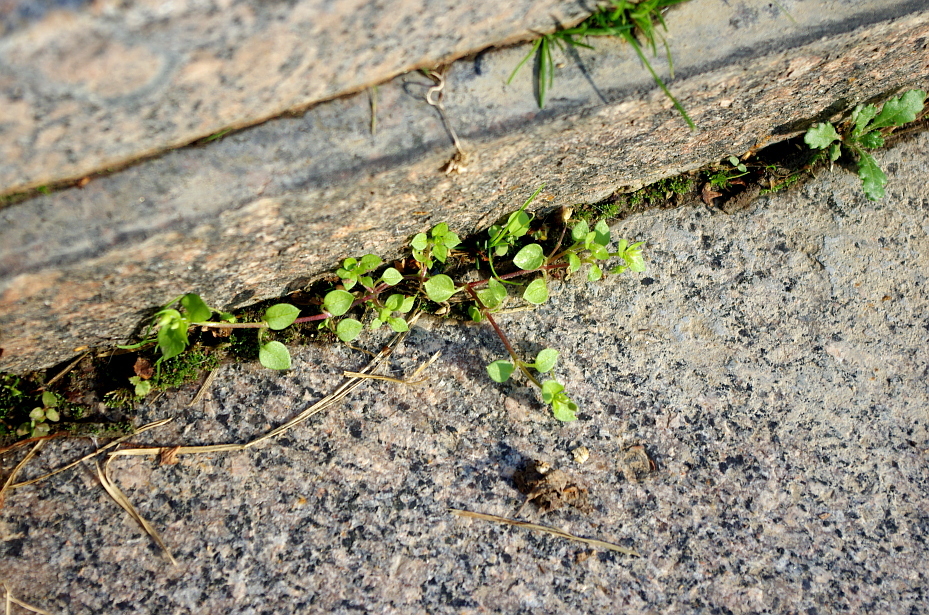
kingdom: Plantae
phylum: Tracheophyta
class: Magnoliopsida
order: Caryophyllales
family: Caryophyllaceae
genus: Stellaria
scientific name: Stellaria media
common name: Common chickweed
